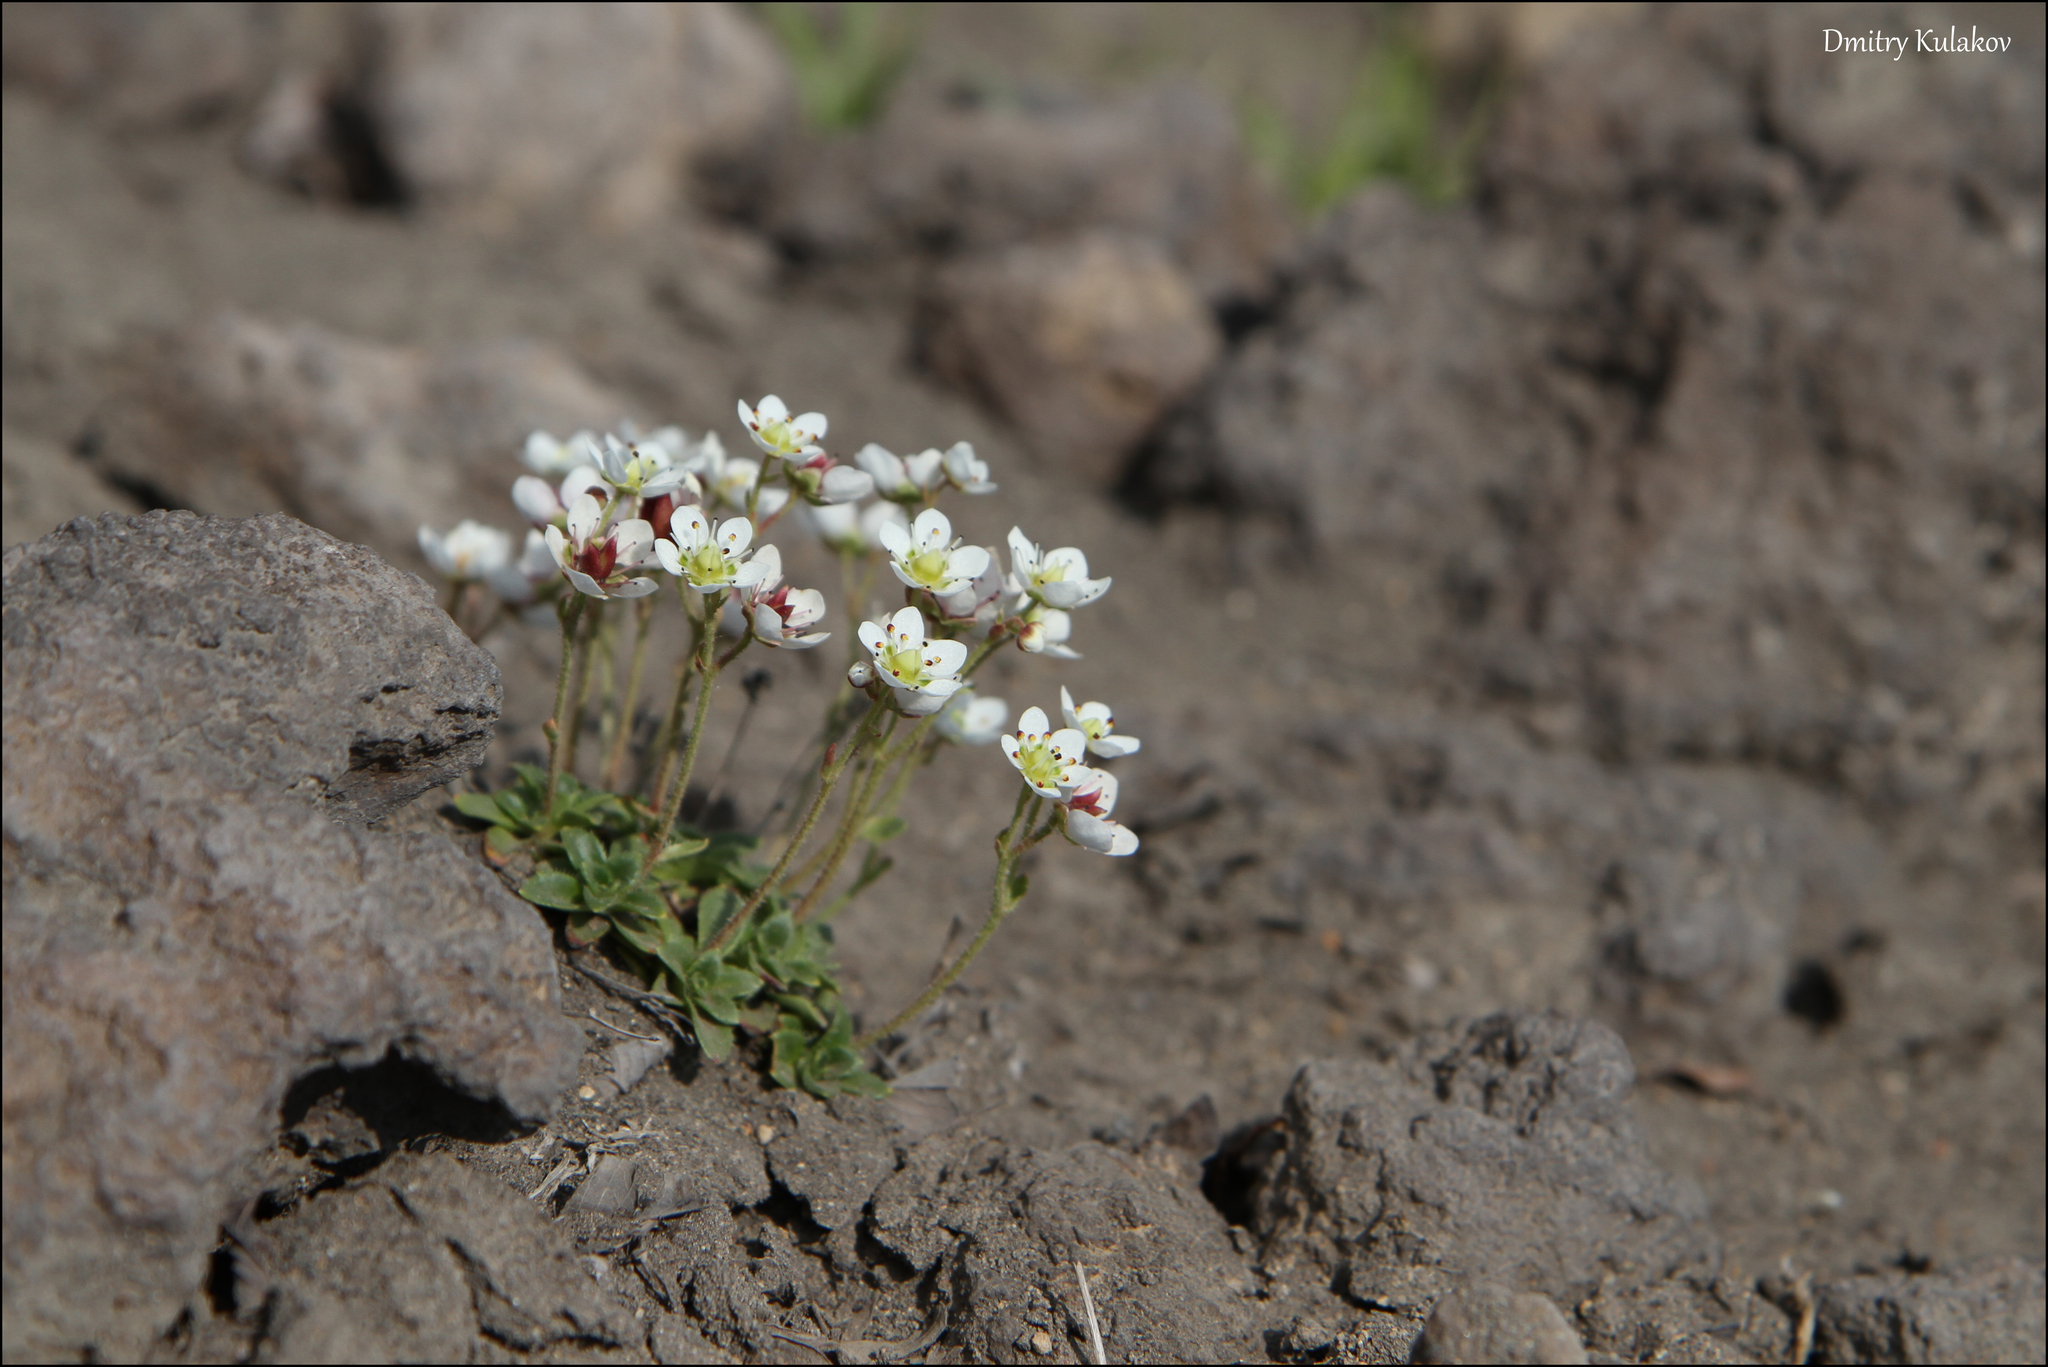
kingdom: Plantae
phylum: Tracheophyta
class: Magnoliopsida
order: Saxifragales
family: Saxifragaceae
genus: Micranthes
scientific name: Micranthes merkii
